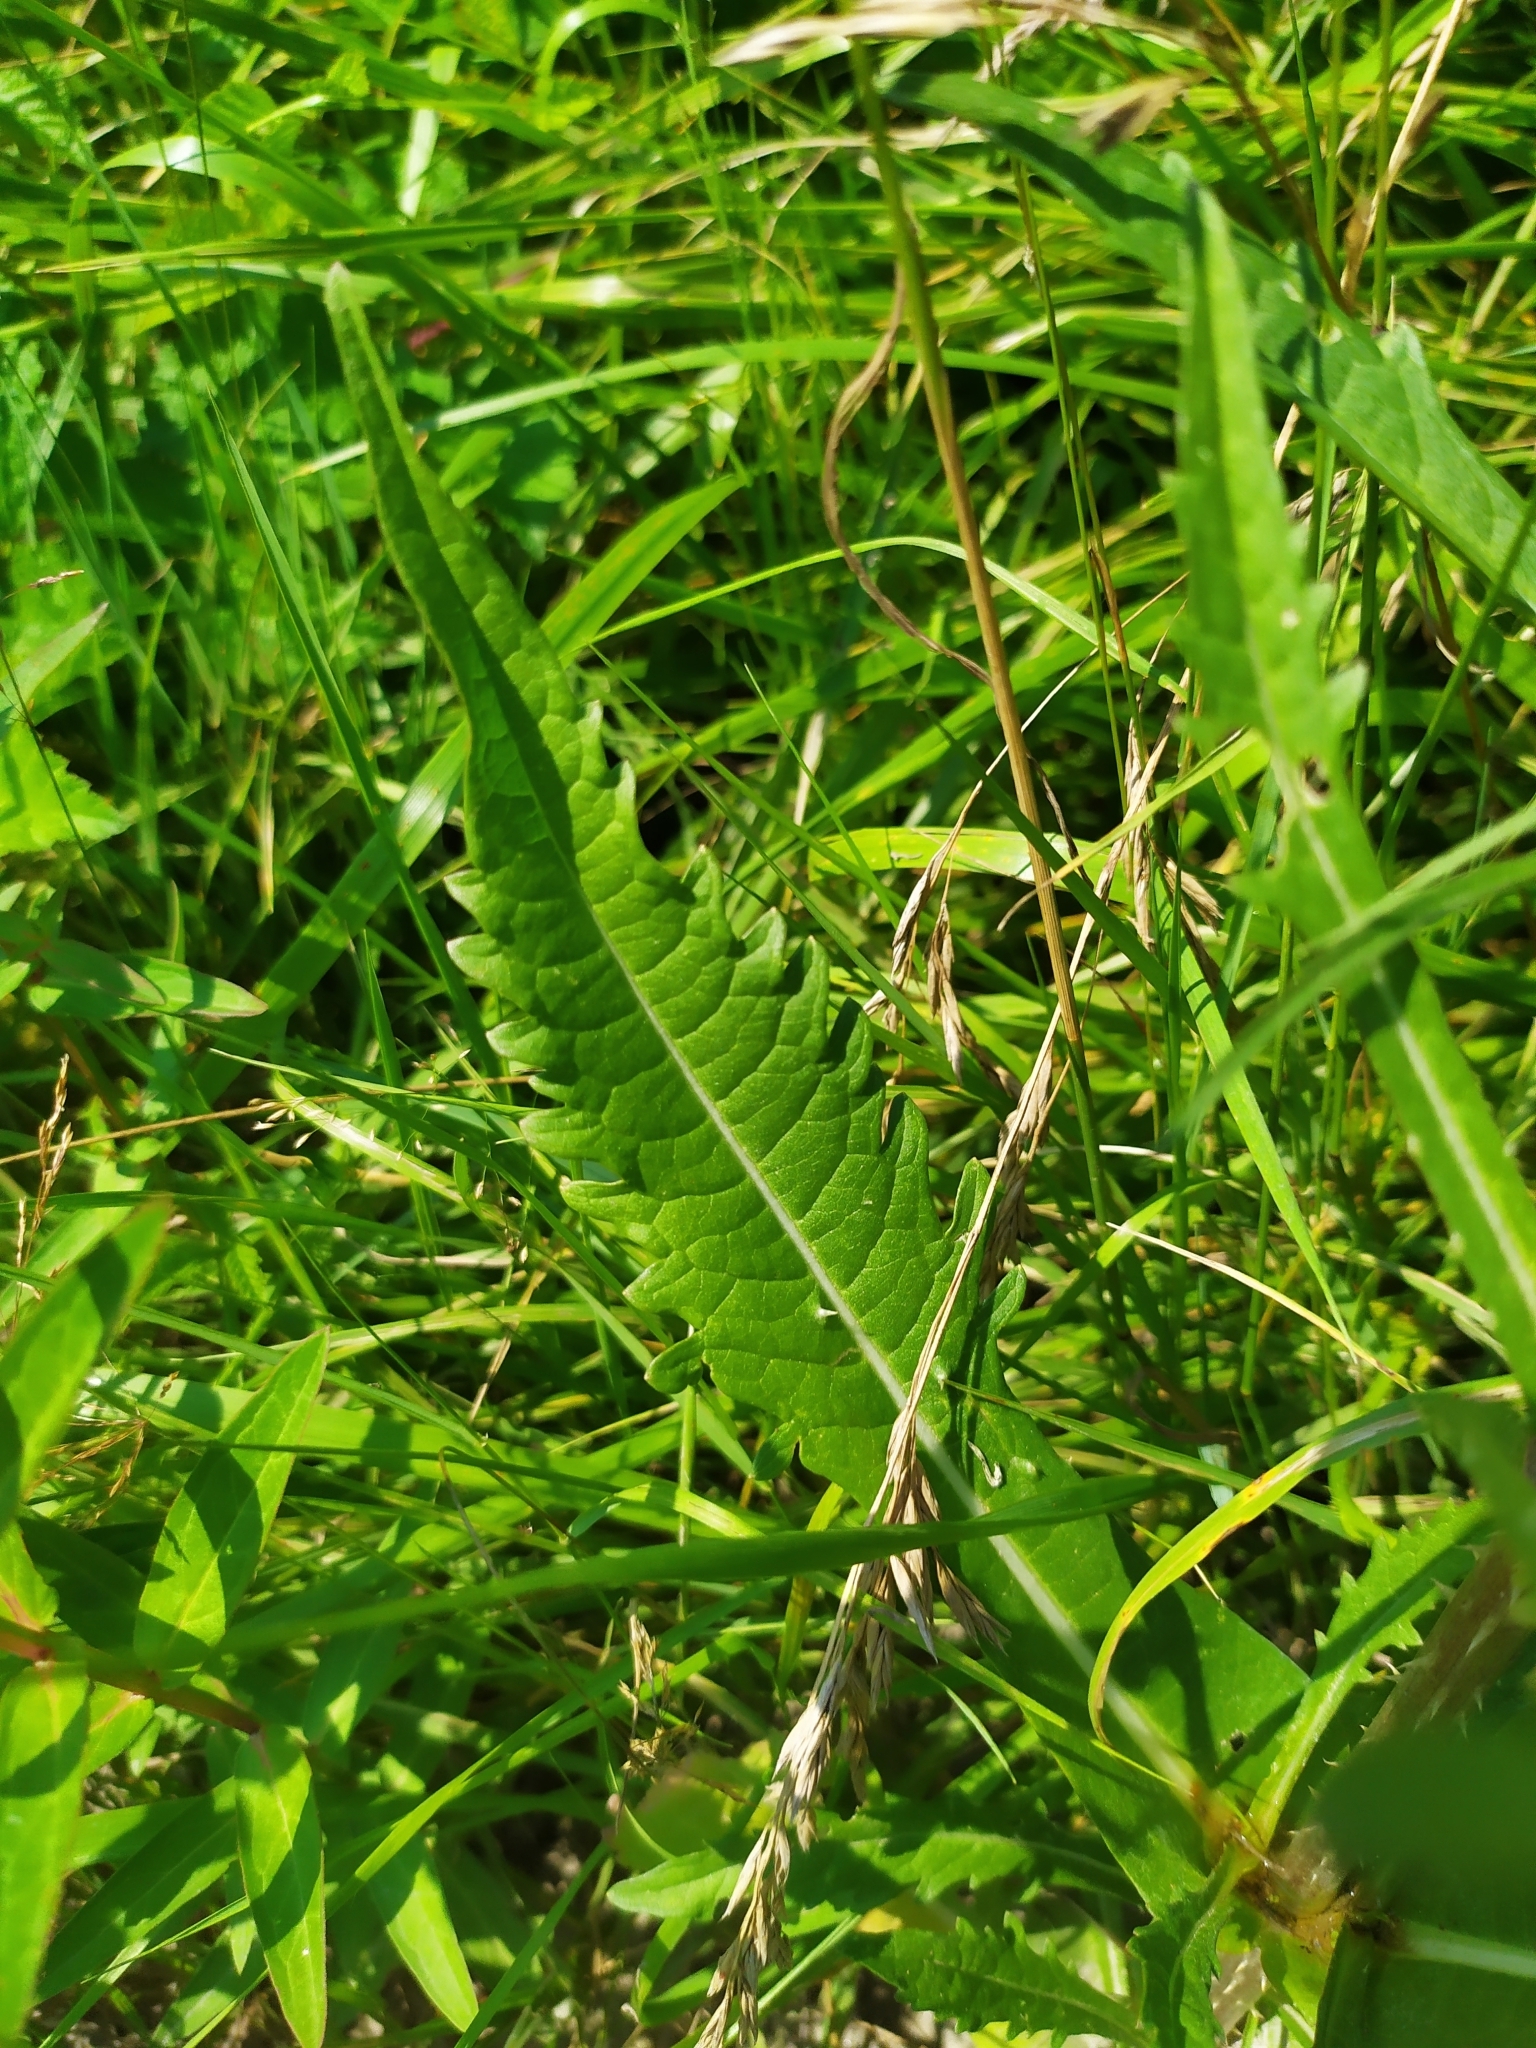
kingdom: Plantae
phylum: Tracheophyta
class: Magnoliopsida
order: Dipsacales
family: Caprifoliaceae
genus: Dipsacus
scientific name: Dipsacus fullonum
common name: Teasel
